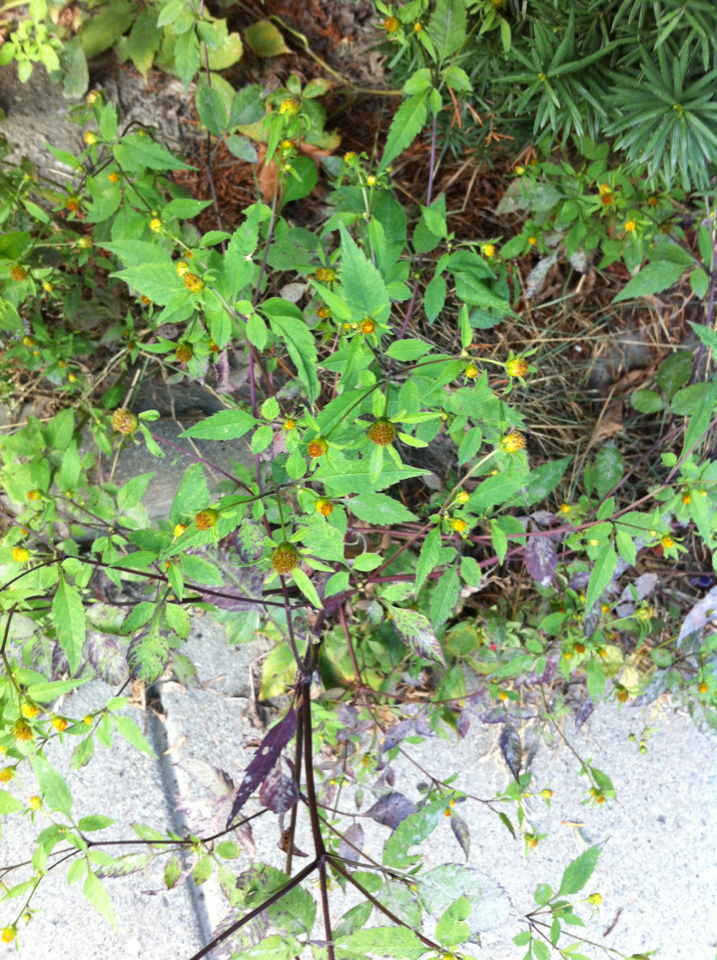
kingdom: Plantae
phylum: Tracheophyta
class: Magnoliopsida
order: Asterales
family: Asteraceae
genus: Bidens
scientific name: Bidens frondosa
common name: Beggarticks
